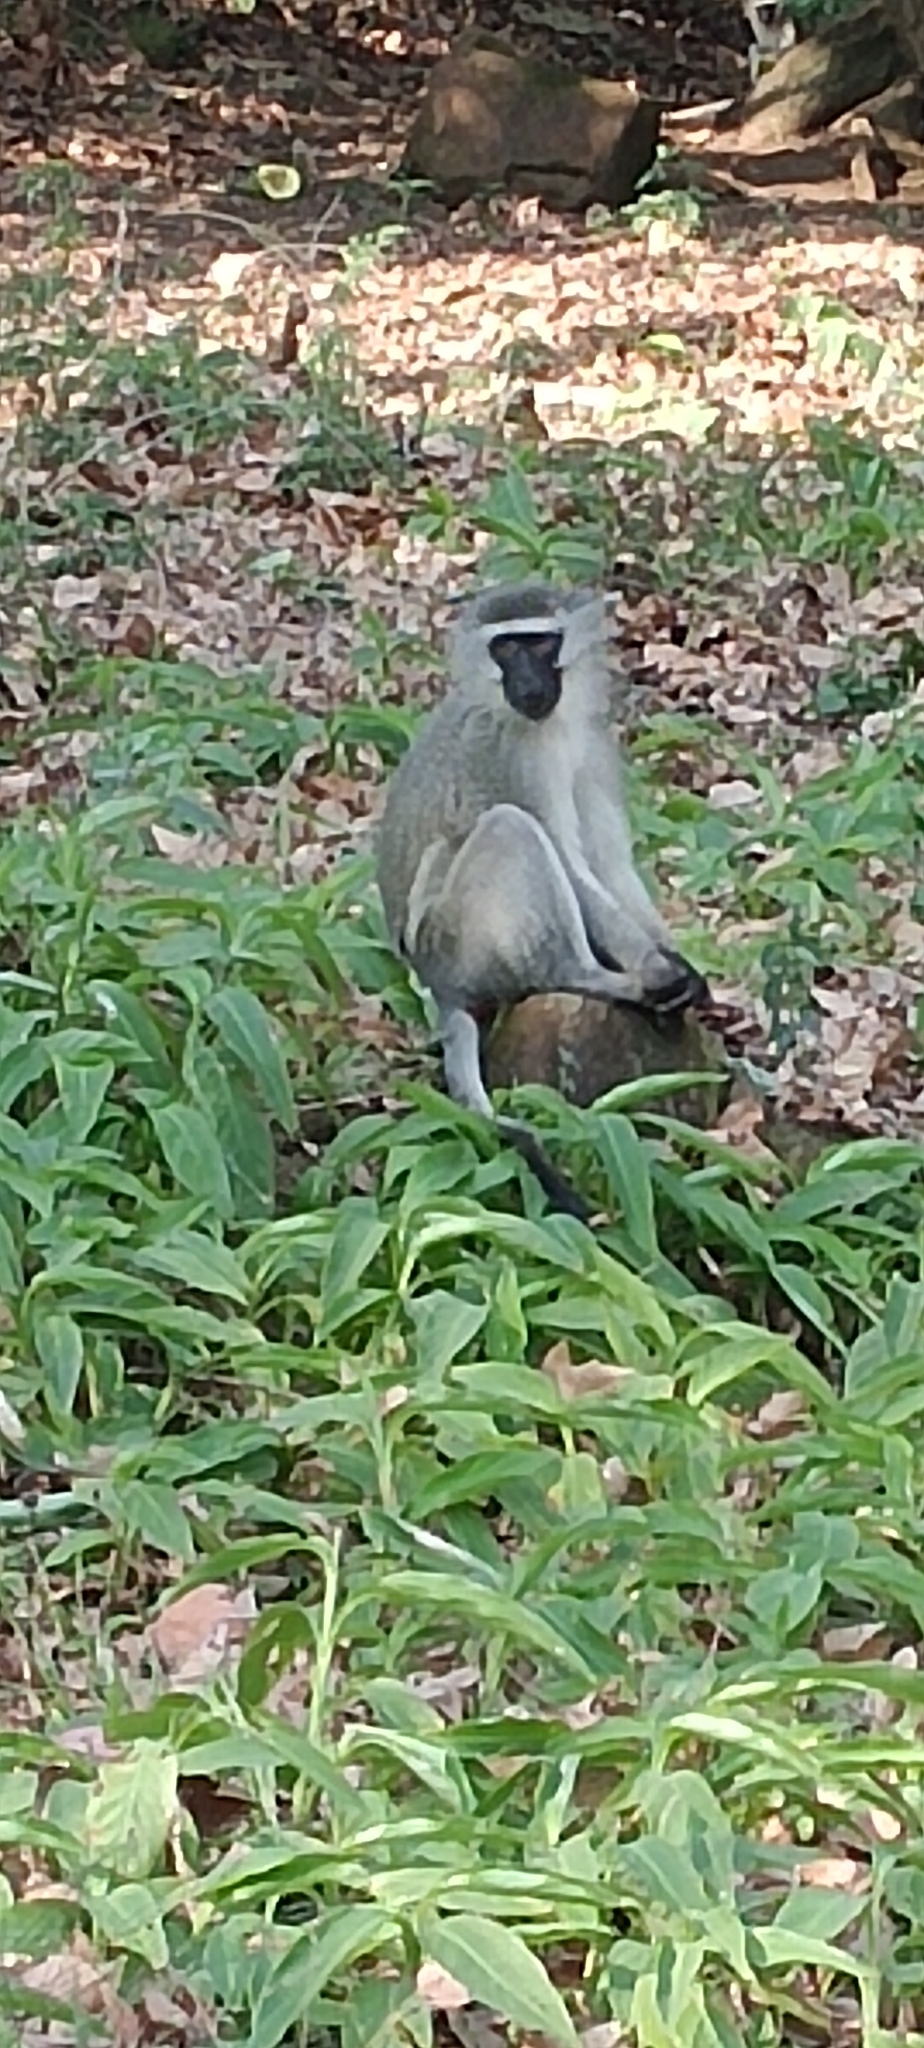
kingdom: Animalia
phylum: Chordata
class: Mammalia
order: Primates
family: Cercopithecidae
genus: Chlorocebus
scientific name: Chlorocebus pygerythrus
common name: Vervet monkey
